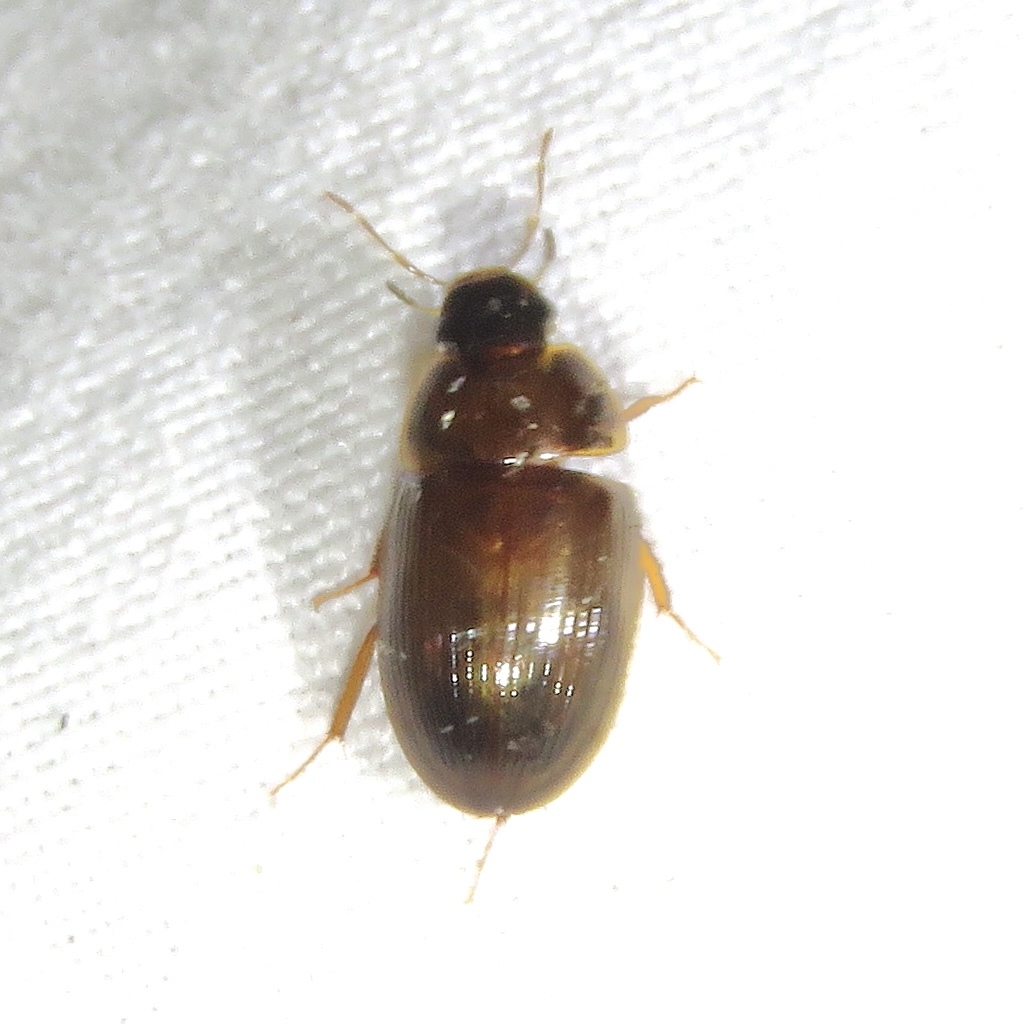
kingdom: Animalia
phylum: Arthropoda
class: Insecta
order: Coleoptera
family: Hydrophilidae
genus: Cymbiodyta
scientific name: Cymbiodyta bifida
